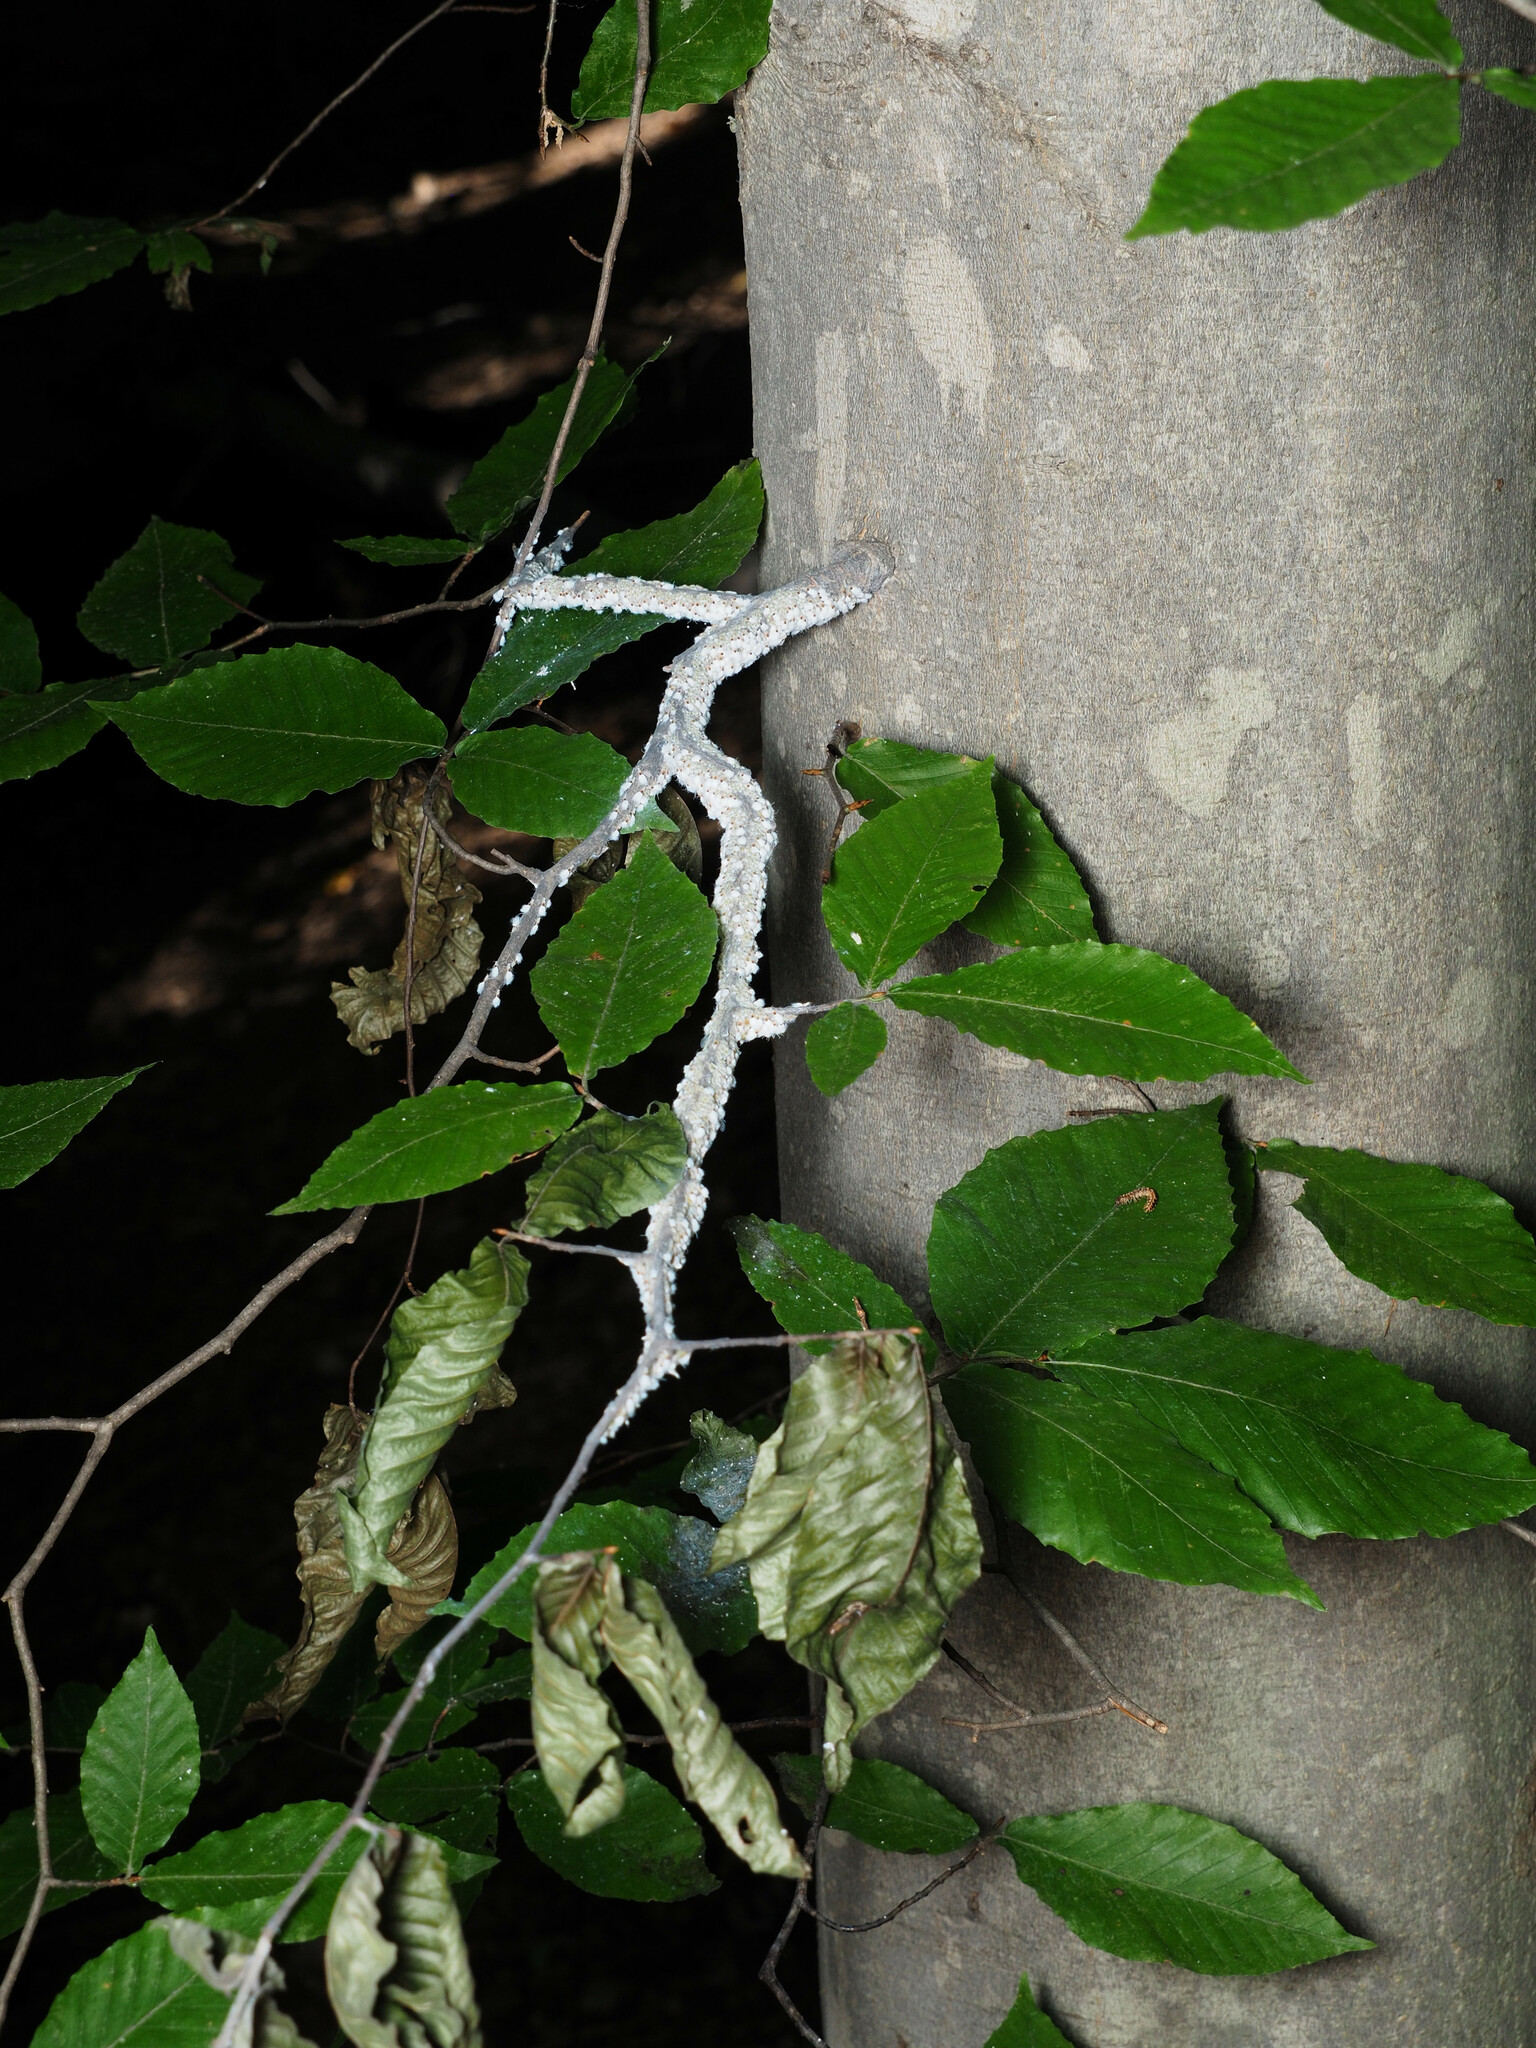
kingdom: Animalia
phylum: Arthropoda
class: Insecta
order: Hemiptera
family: Aphididae
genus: Grylloprociphilus
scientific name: Grylloprociphilus imbricator
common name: Beech blight aphid
